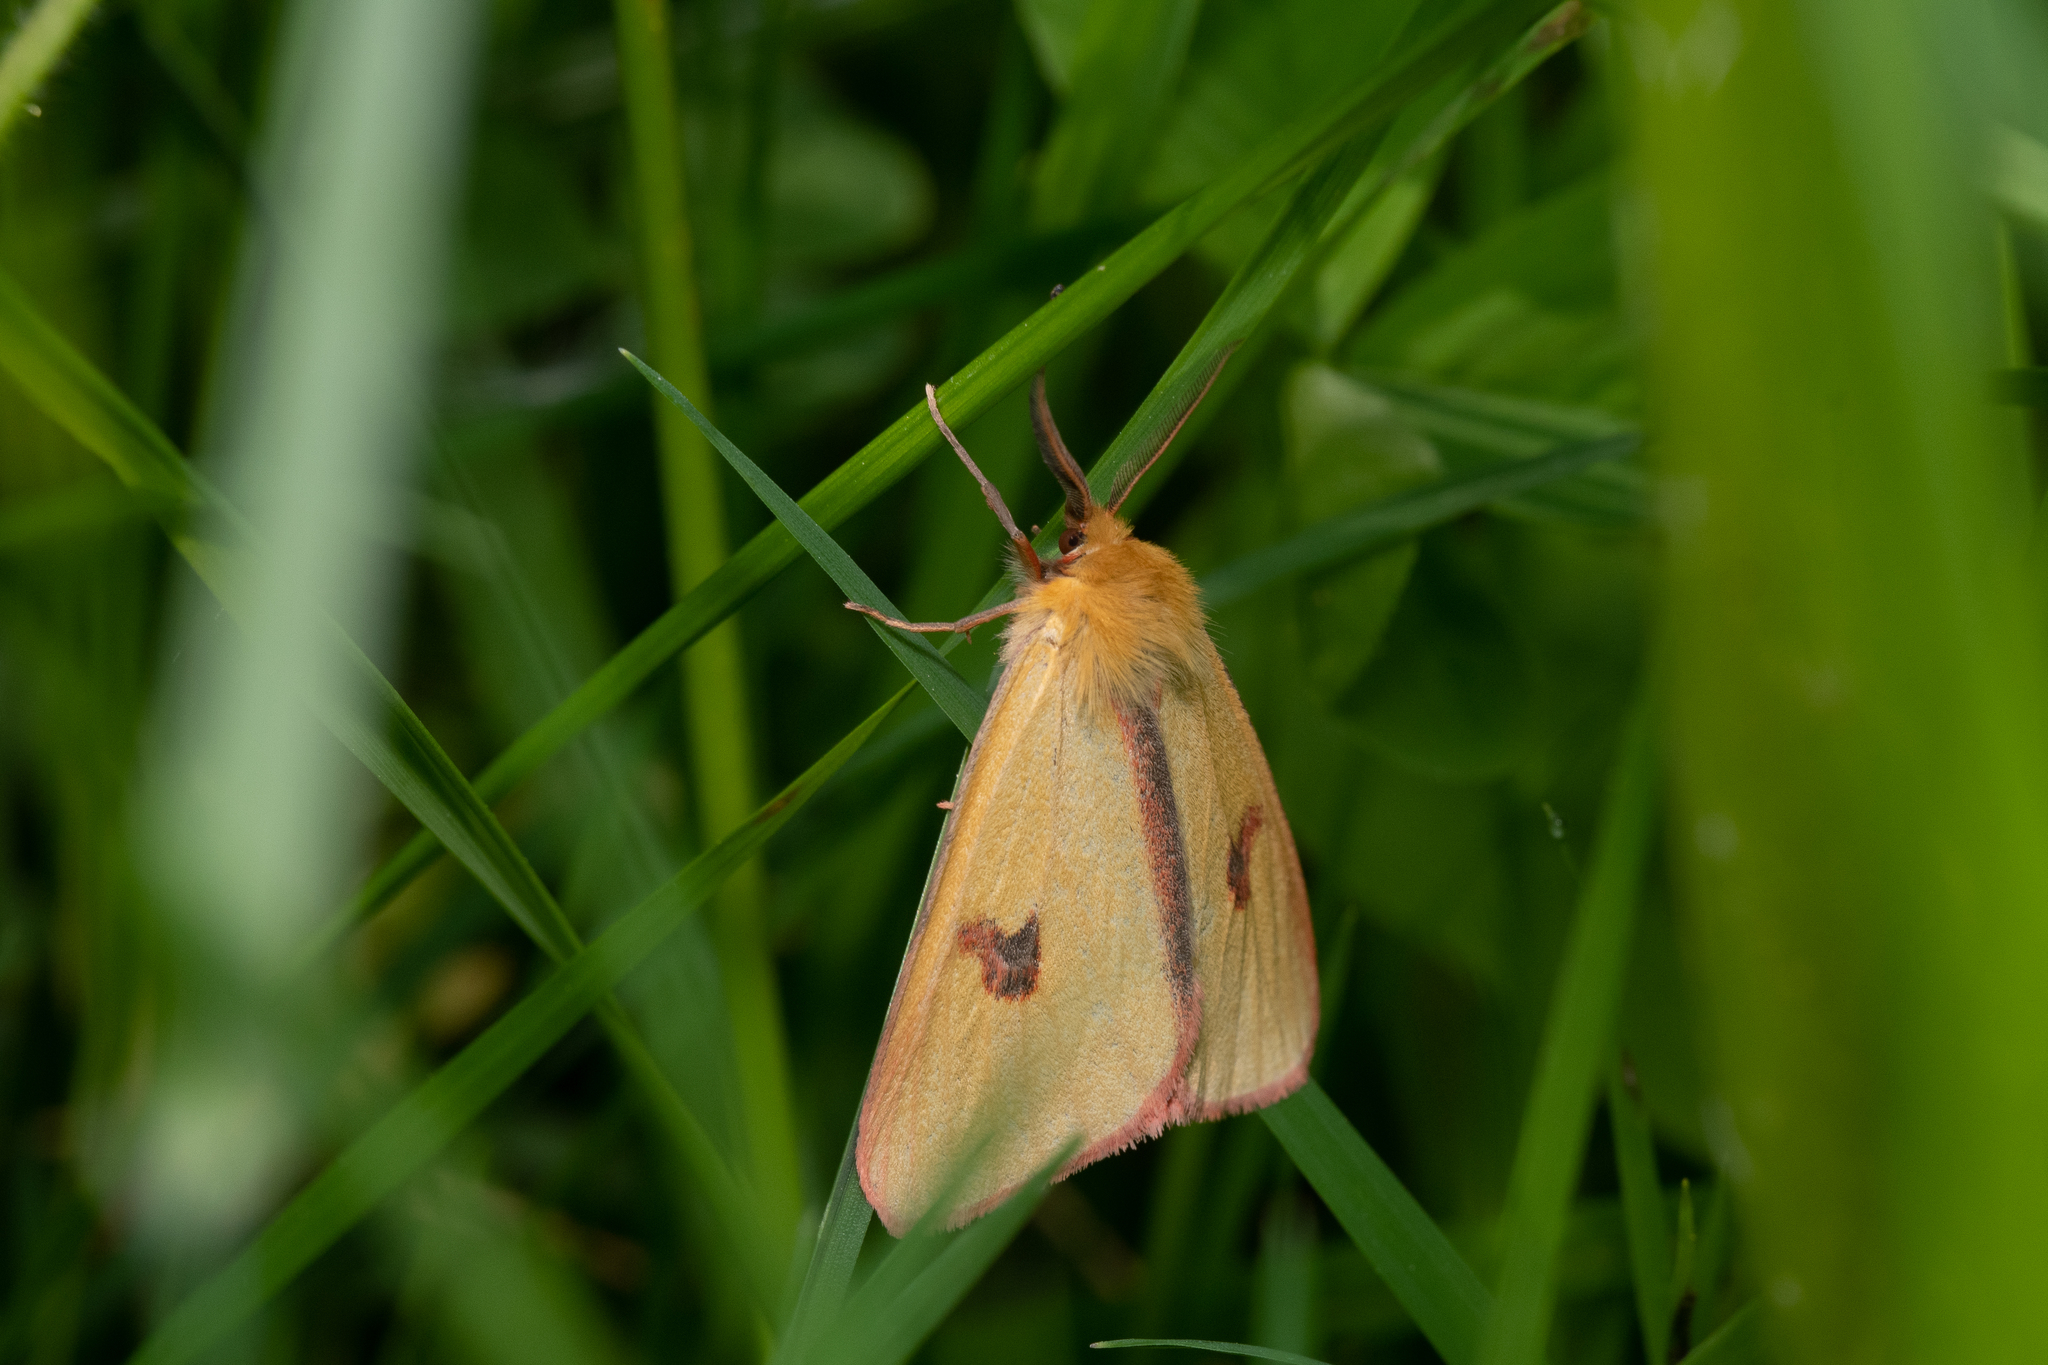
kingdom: Animalia
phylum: Arthropoda
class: Insecta
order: Lepidoptera
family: Erebidae
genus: Diacrisia
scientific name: Diacrisia sannio
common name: Clouded buff
